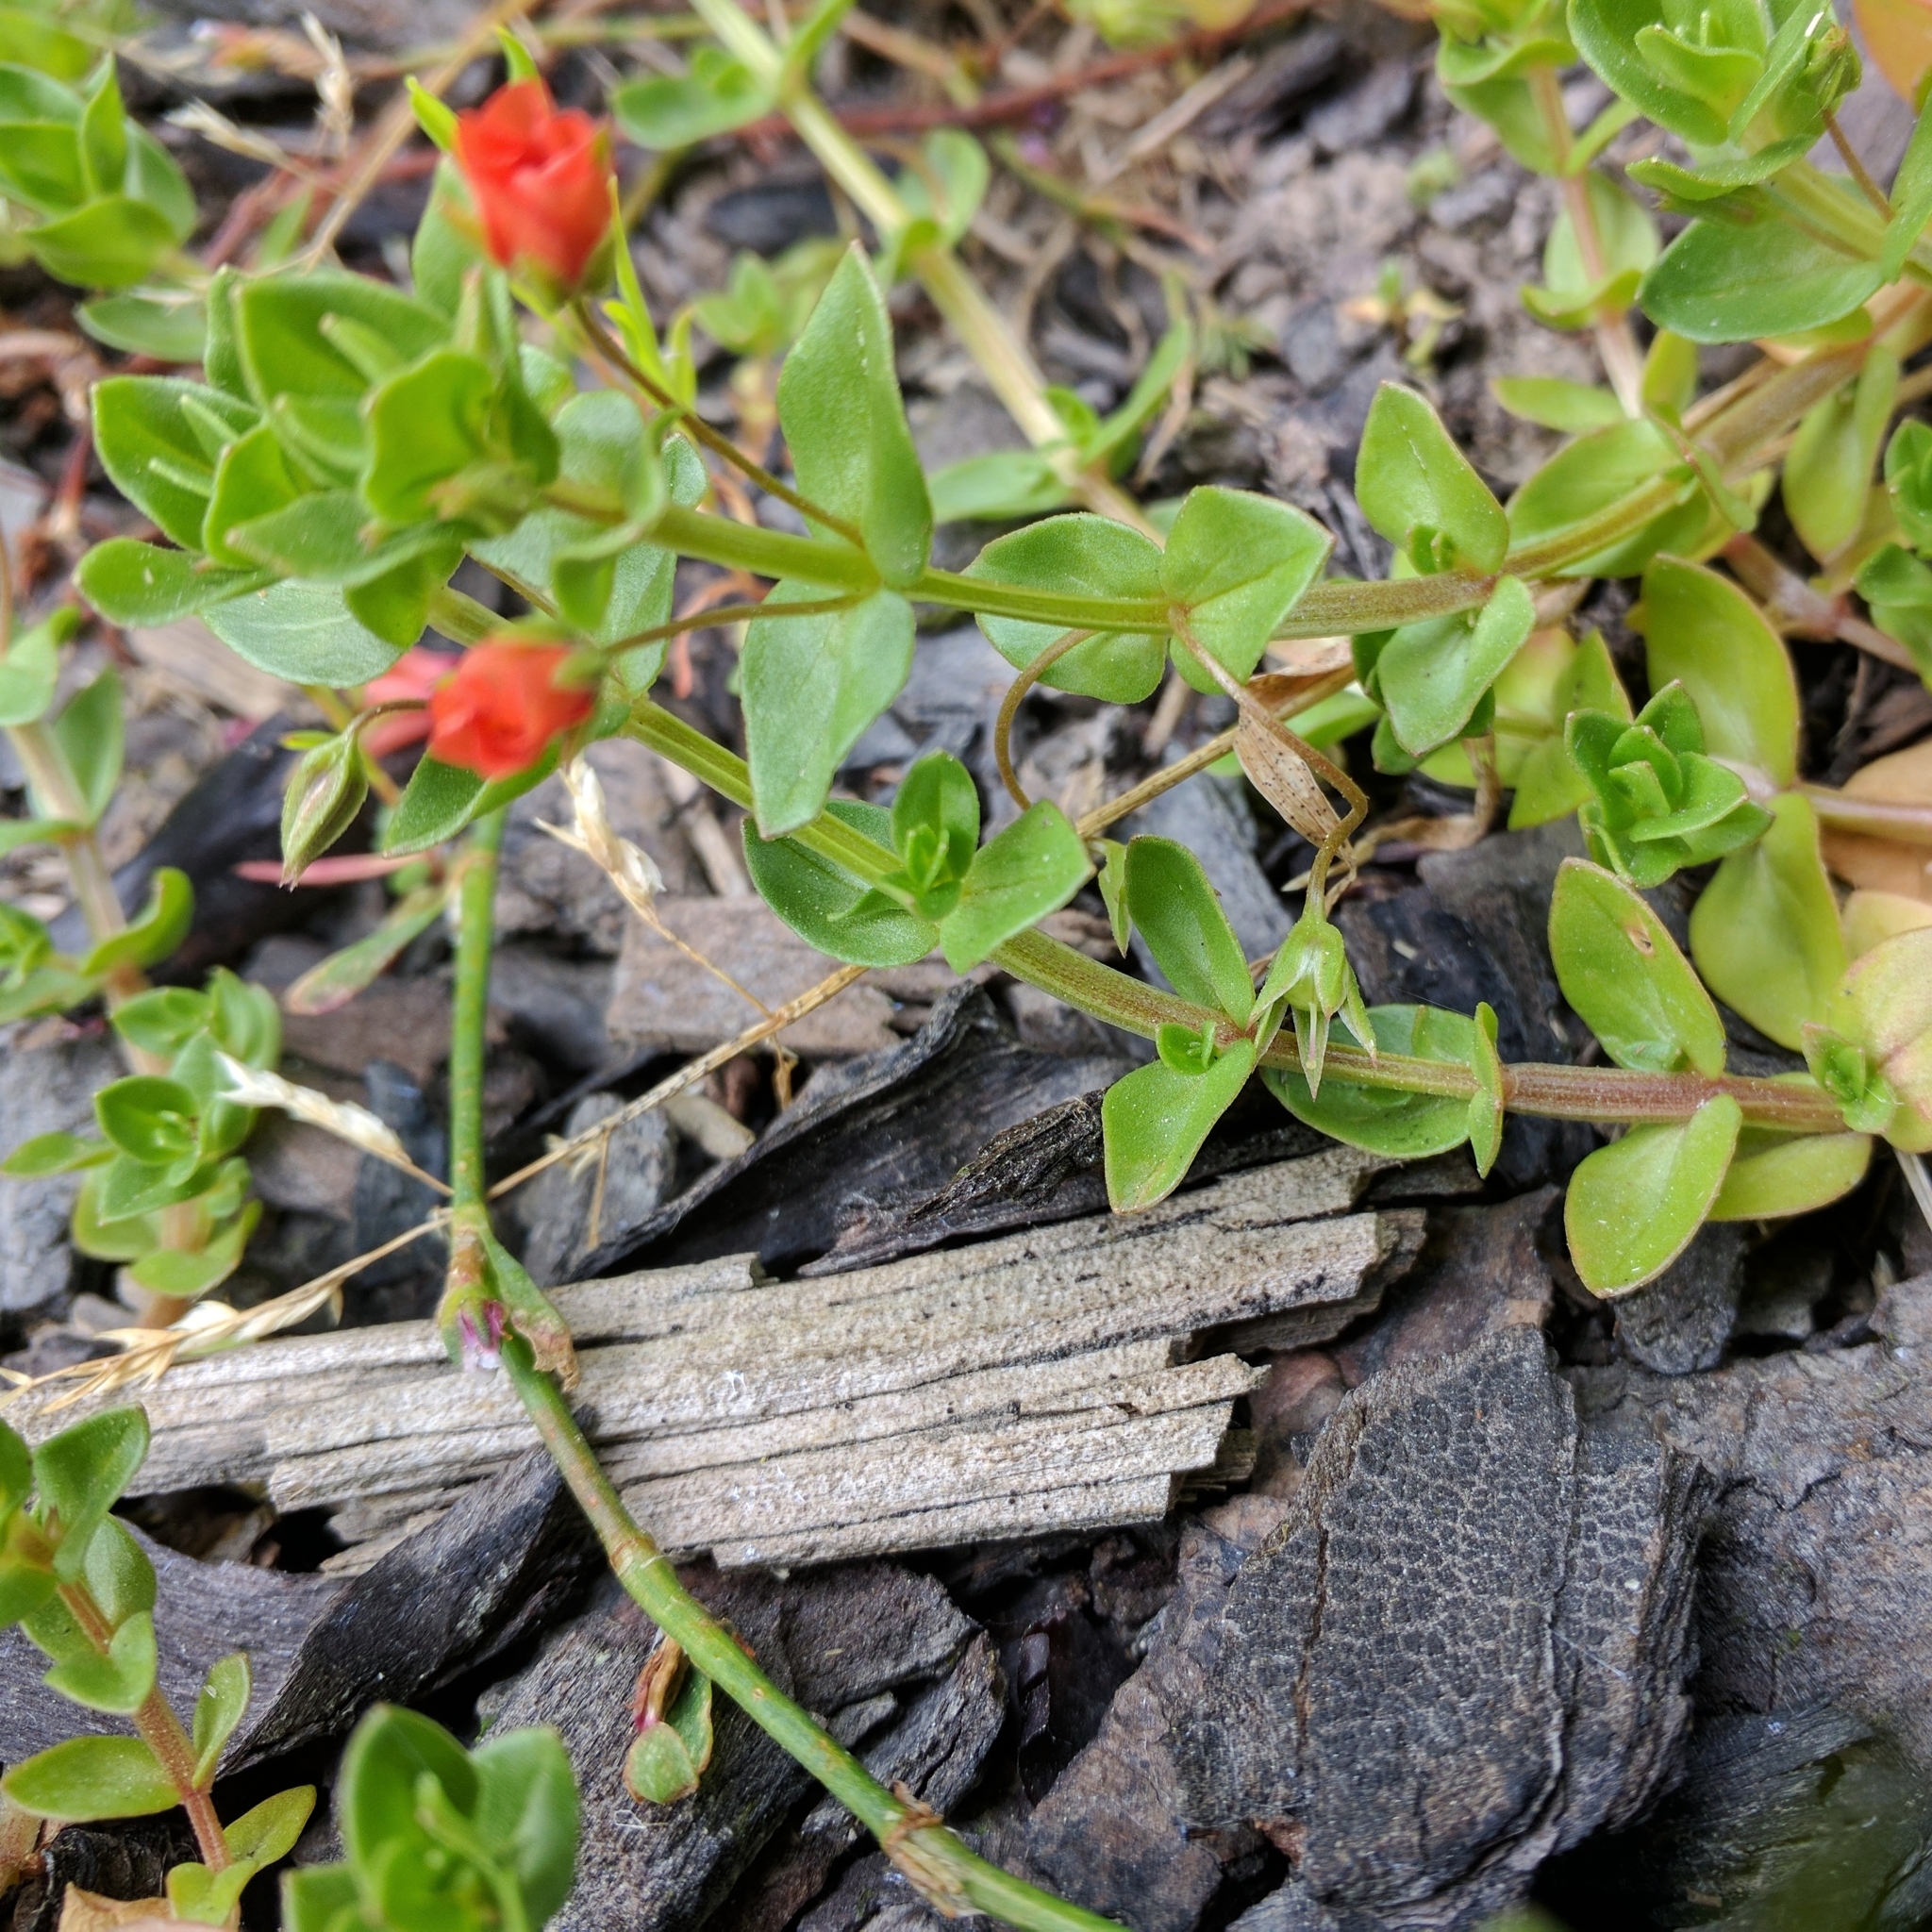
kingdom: Plantae
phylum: Tracheophyta
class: Magnoliopsida
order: Ericales
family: Primulaceae
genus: Lysimachia
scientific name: Lysimachia arvensis
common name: Scarlet pimpernel
